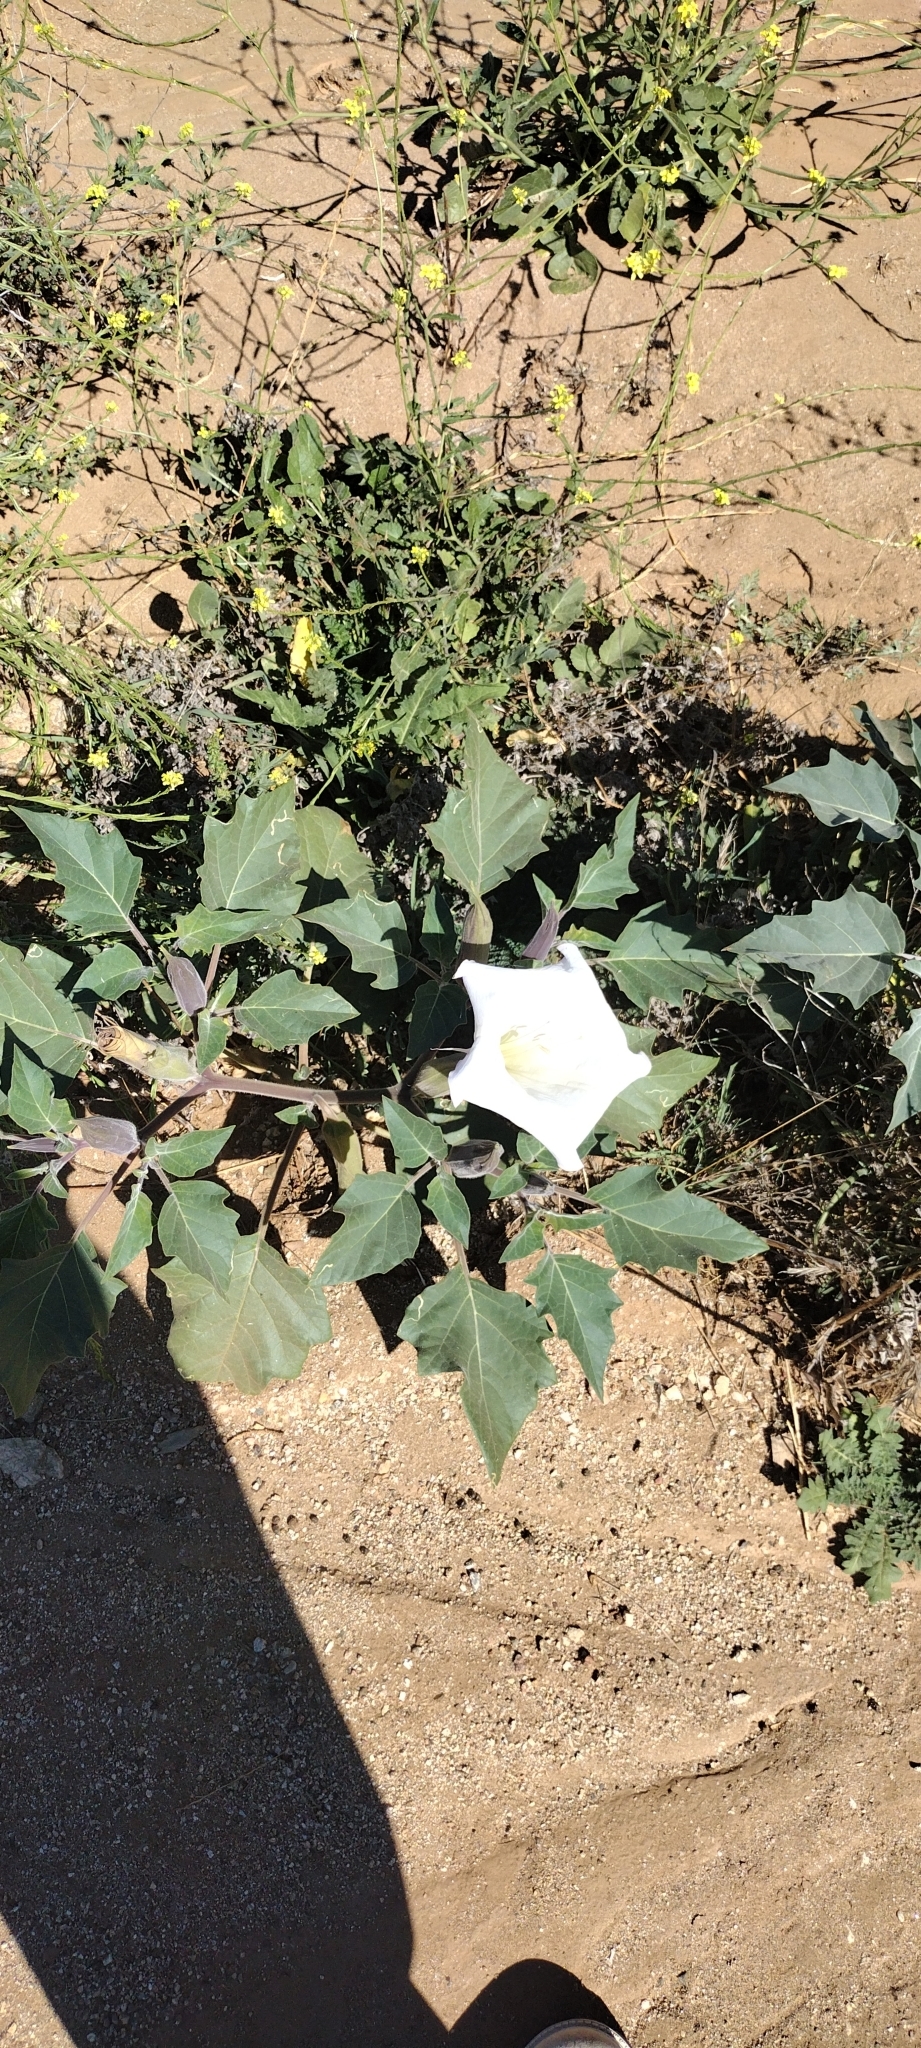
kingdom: Plantae
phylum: Tracheophyta
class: Magnoliopsida
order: Solanales
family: Solanaceae
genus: Datura
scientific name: Datura wrightii
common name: Sacred thorn-apple
